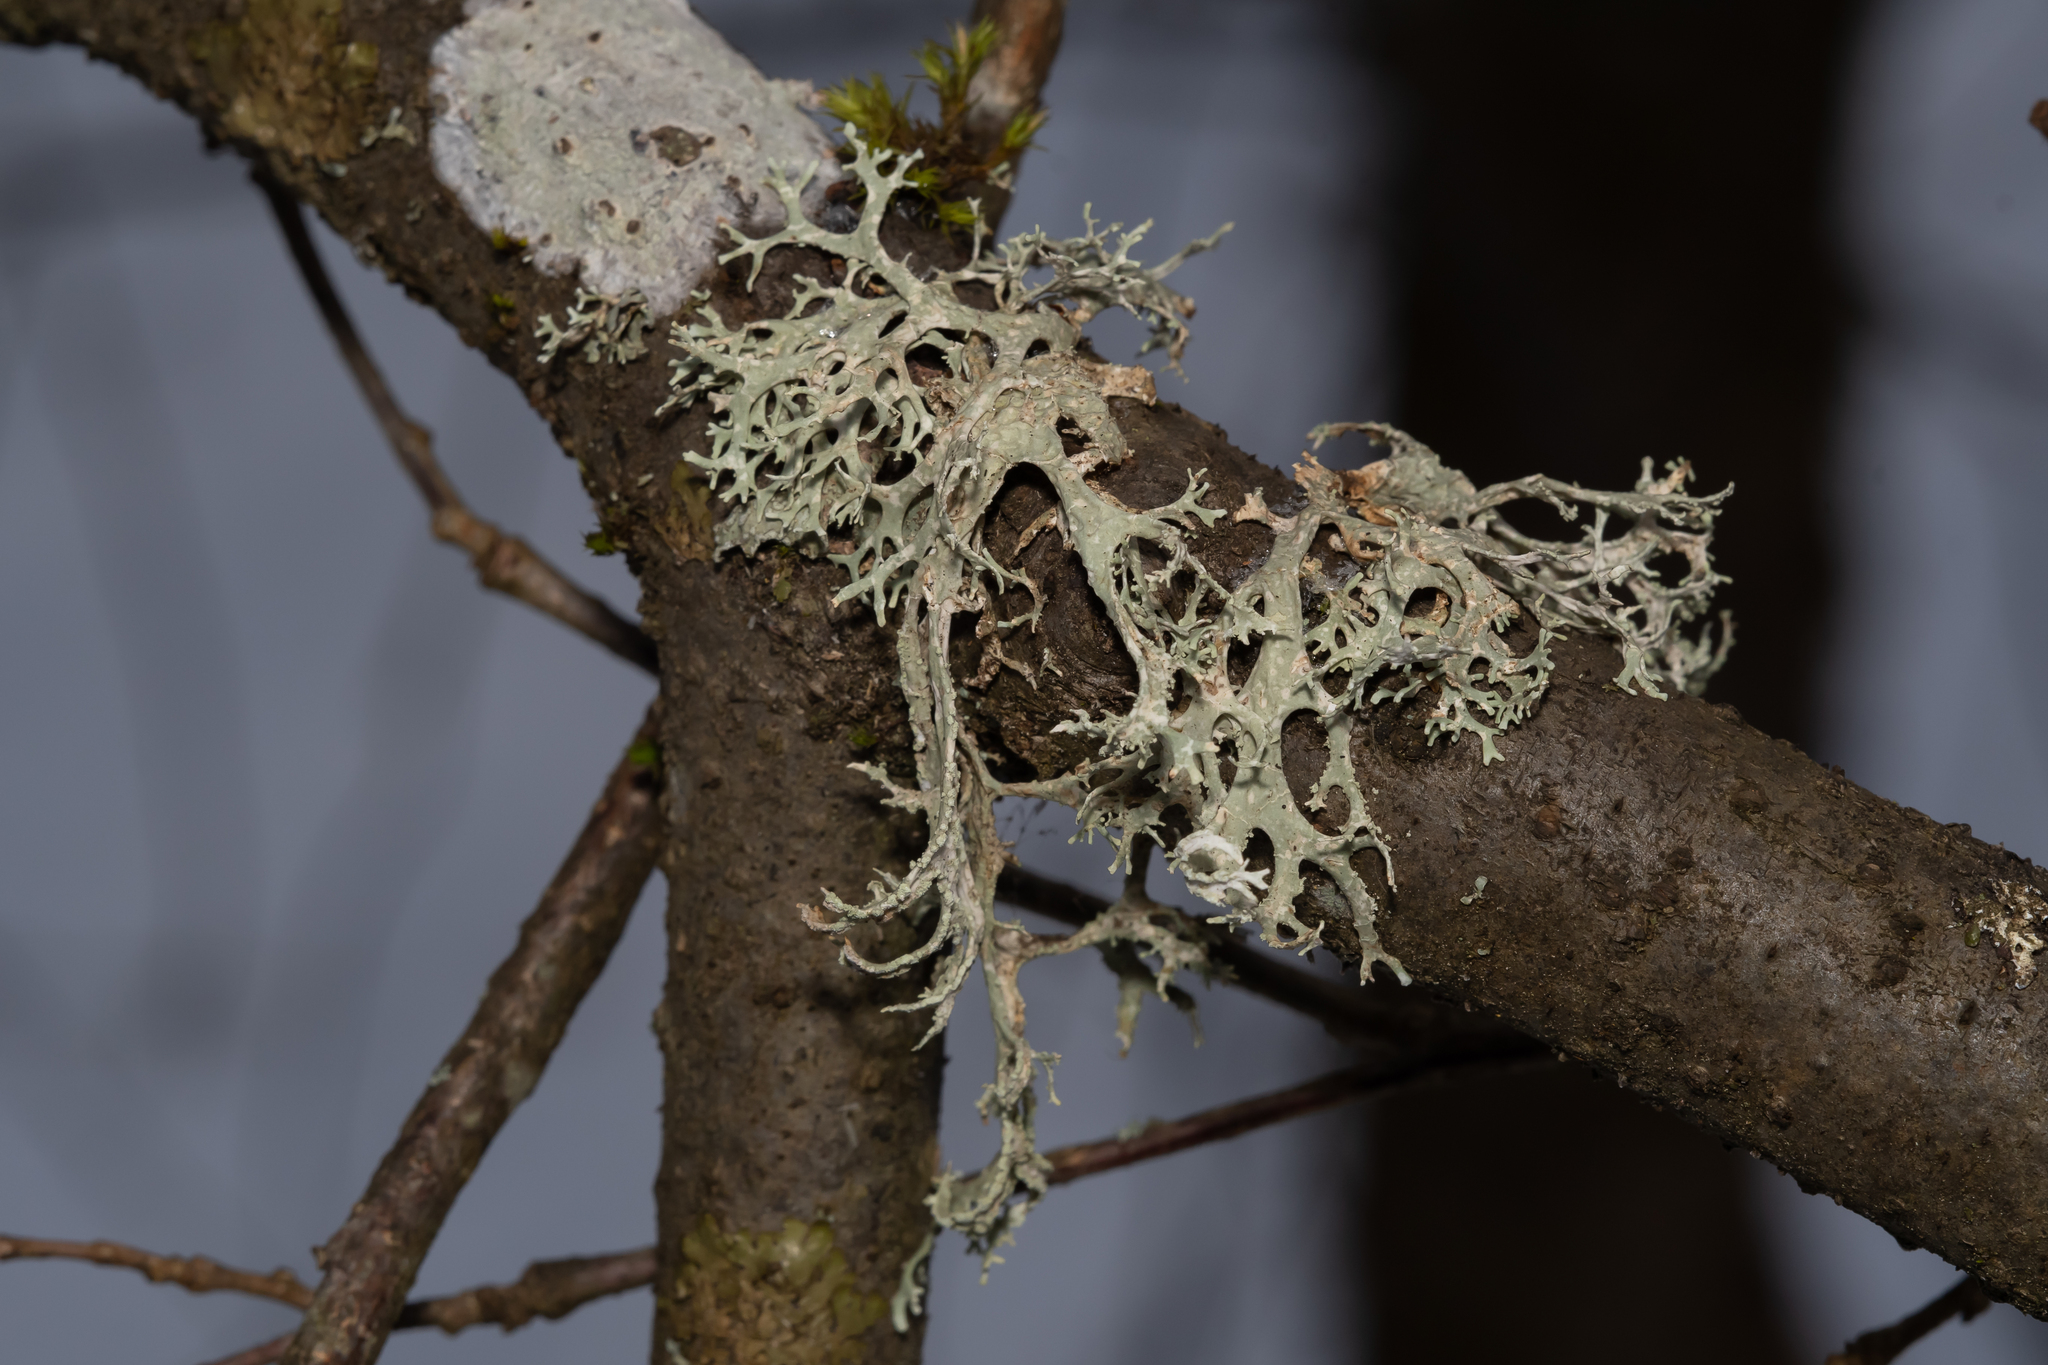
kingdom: Fungi
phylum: Ascomycota
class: Lecanoromycetes
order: Lecanorales
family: Parmeliaceae
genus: Evernia
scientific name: Evernia prunastri
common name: Oak moss
